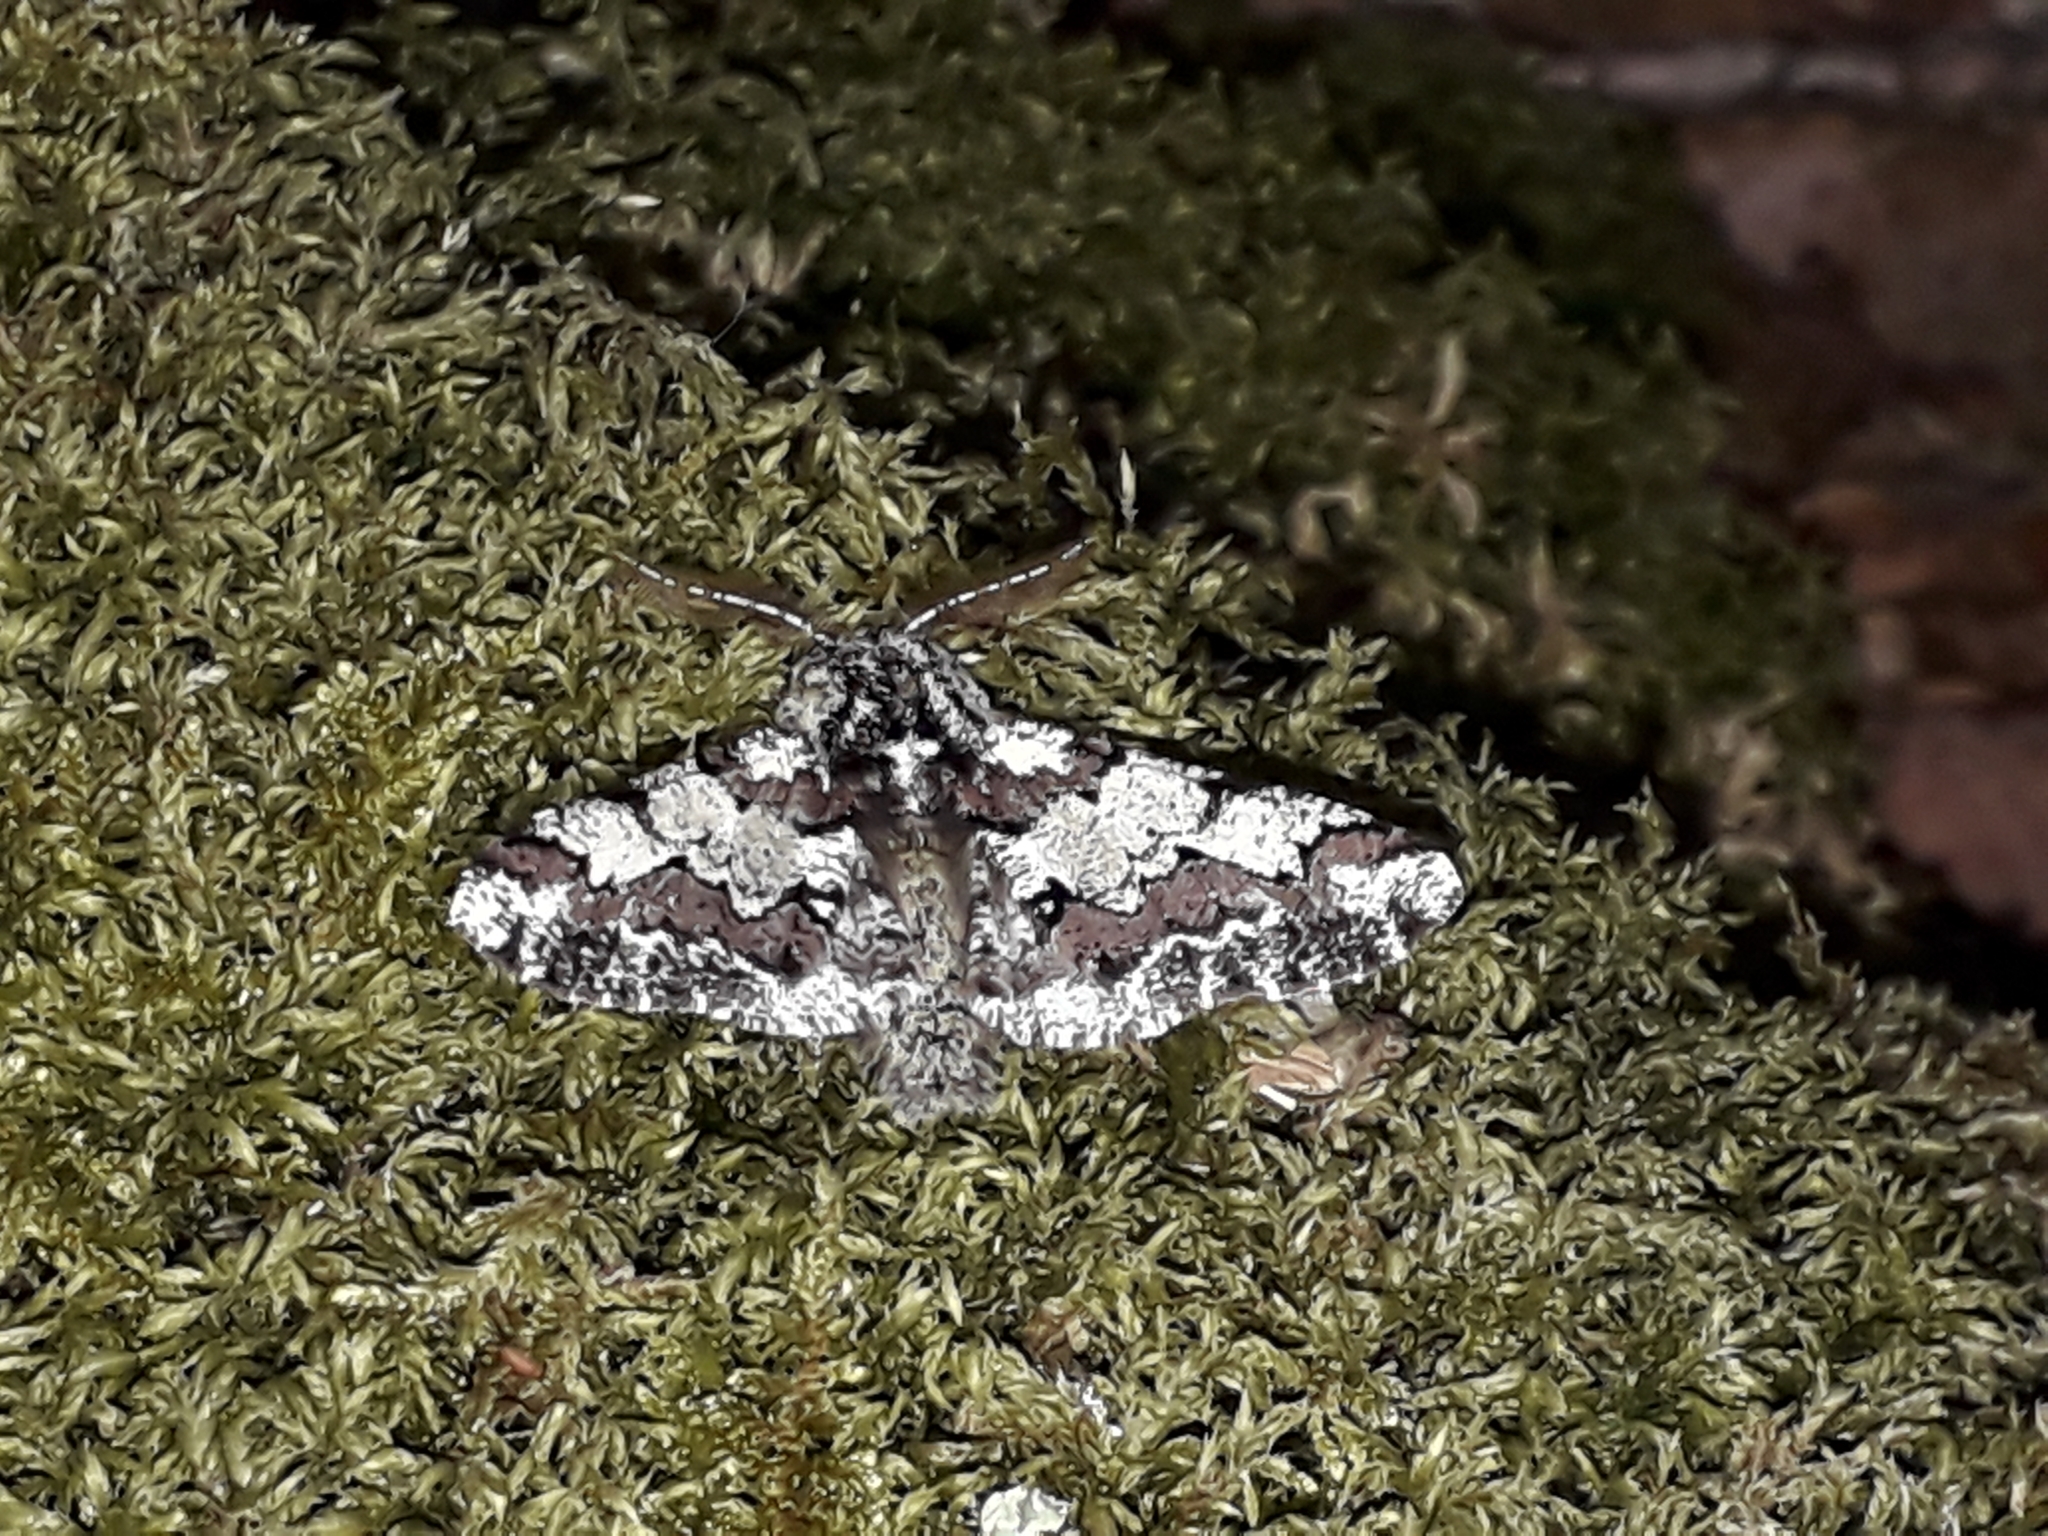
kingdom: Animalia
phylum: Arthropoda
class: Insecta
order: Lepidoptera
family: Geometridae
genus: Biston
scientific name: Biston strataria
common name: Oak beauty
